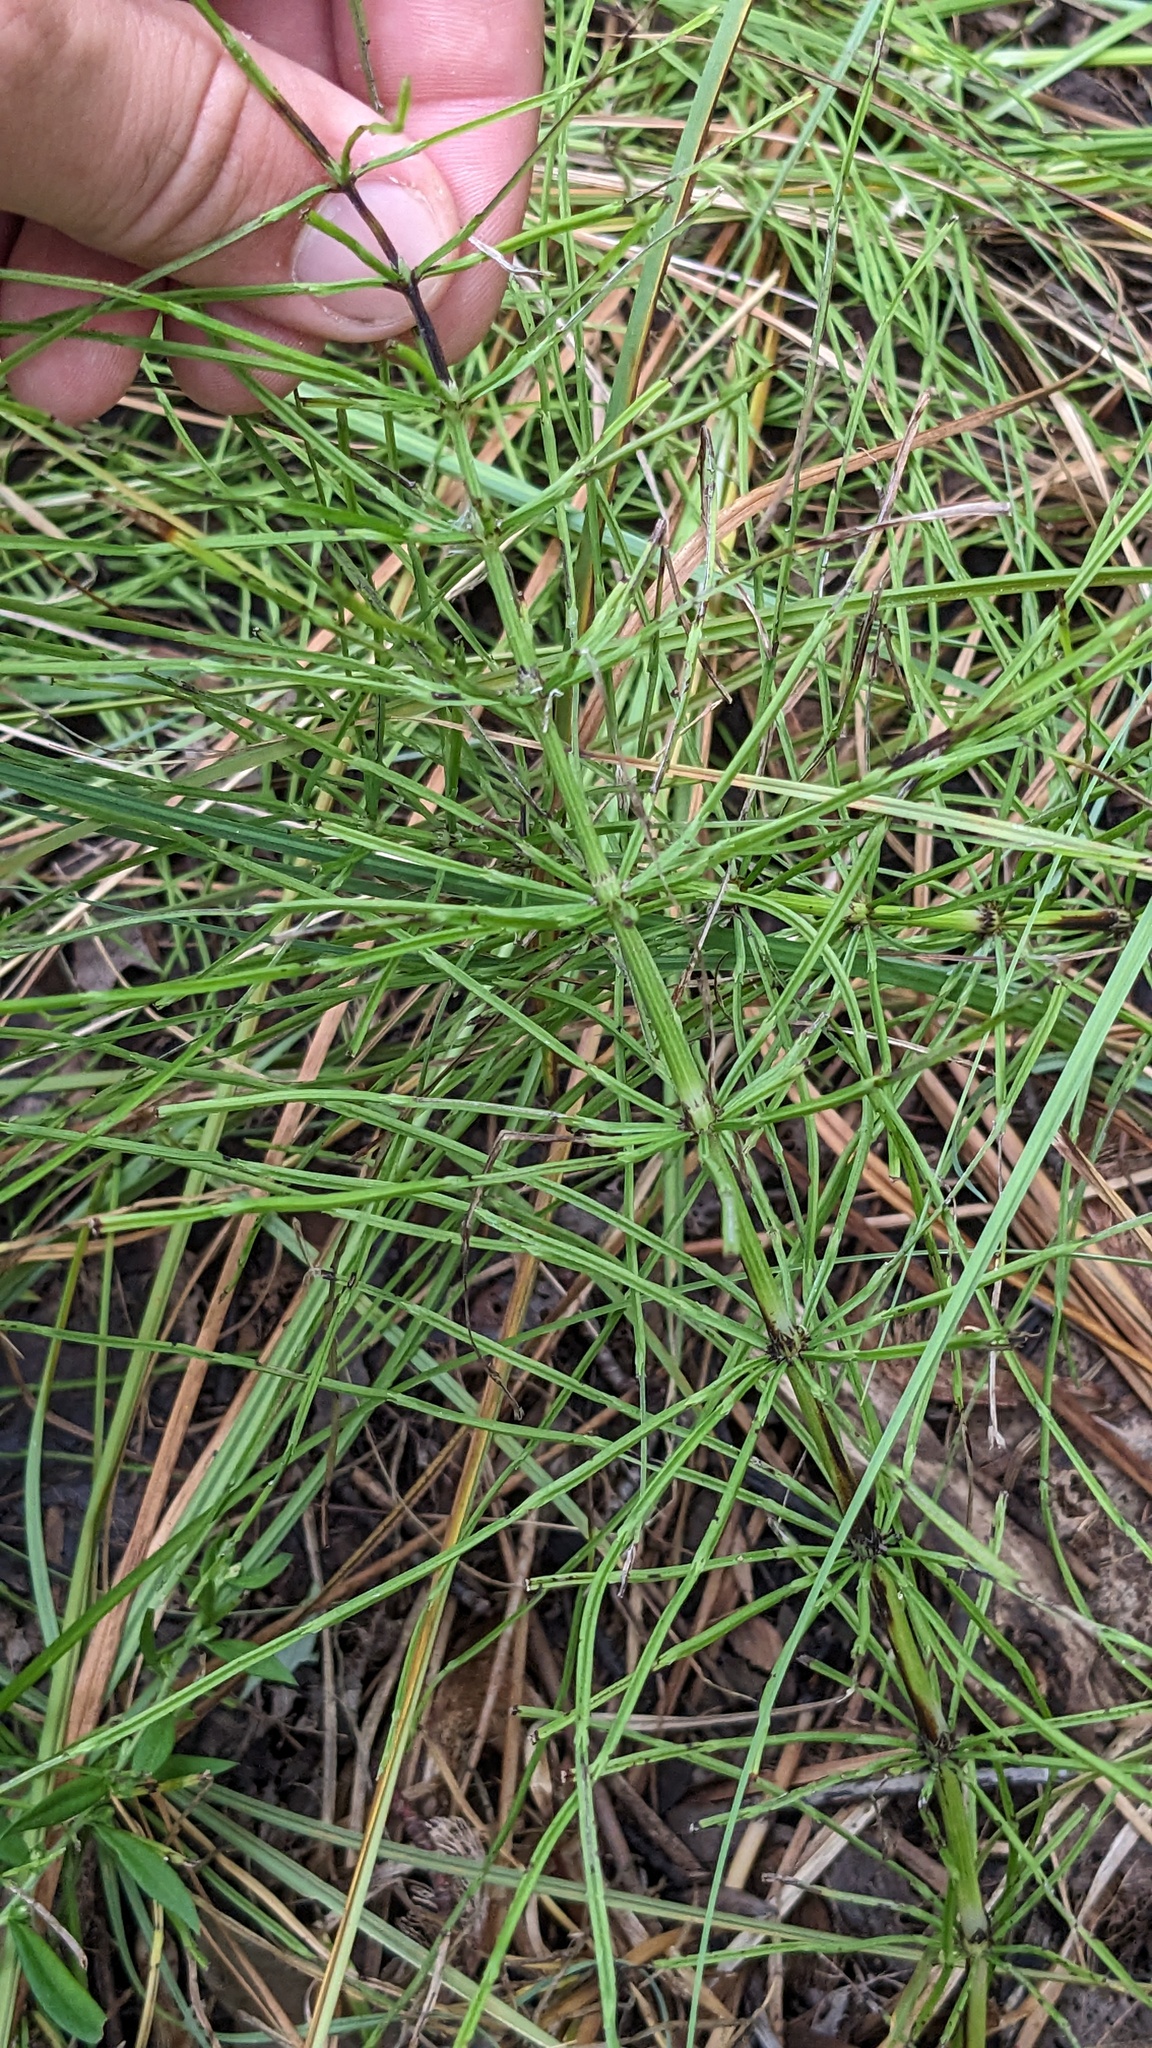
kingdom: Plantae
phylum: Tracheophyta
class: Polypodiopsida
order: Equisetales
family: Equisetaceae
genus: Equisetum
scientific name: Equisetum arvense
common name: Field horsetail
